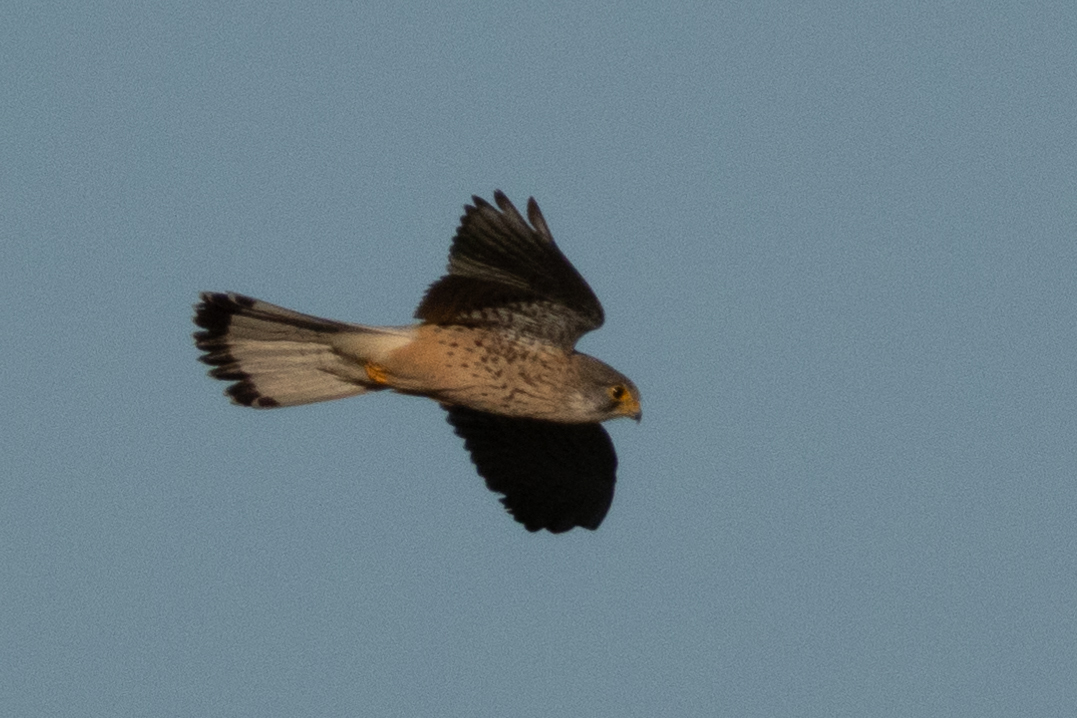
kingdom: Animalia
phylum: Chordata
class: Aves
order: Falconiformes
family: Falconidae
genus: Falco
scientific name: Falco tinnunculus
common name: Common kestrel
